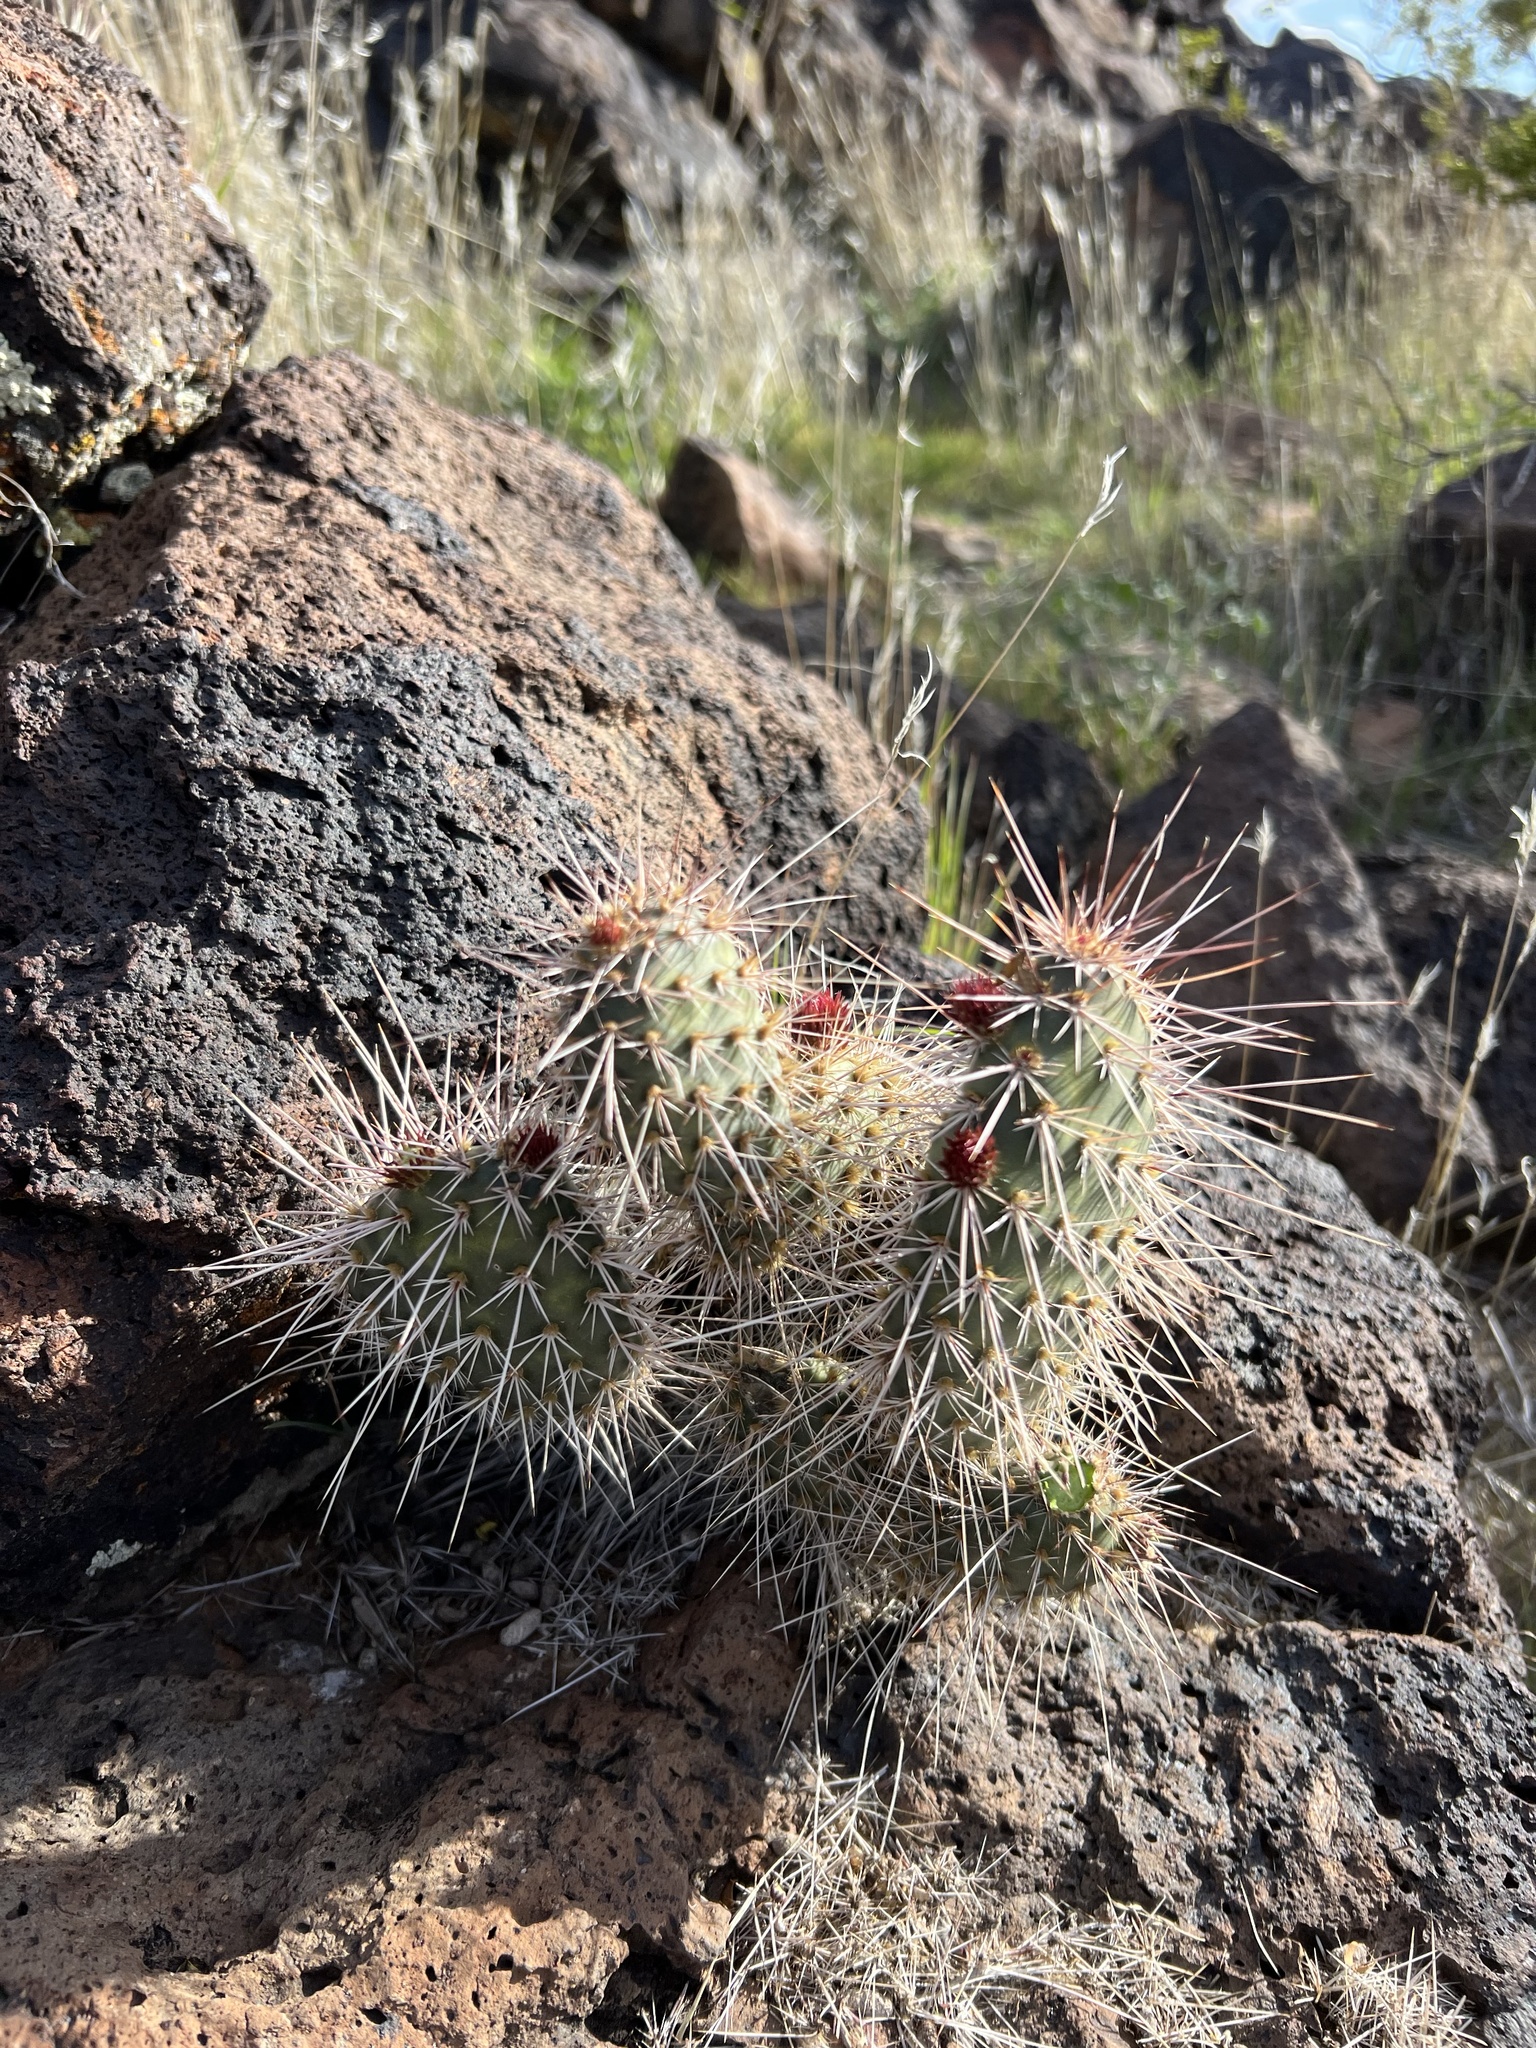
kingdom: Plantae
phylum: Tracheophyta
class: Magnoliopsida
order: Caryophyllales
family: Cactaceae
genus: Opuntia
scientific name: Opuntia polyacantha
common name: Plains prickly-pear
